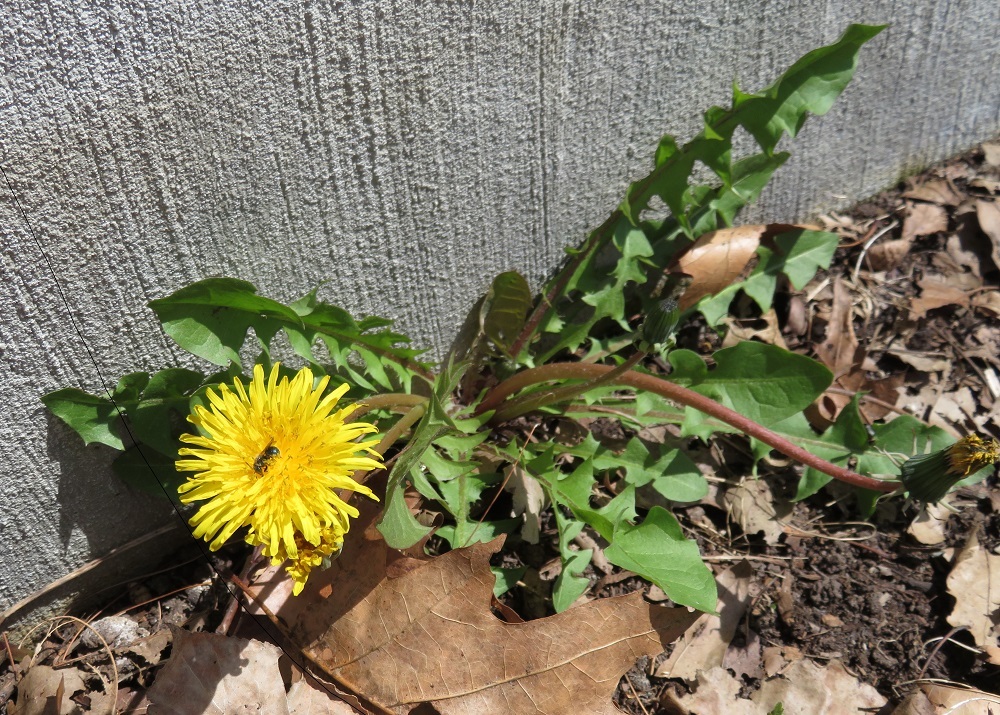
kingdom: Plantae
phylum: Tracheophyta
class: Magnoliopsida
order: Asterales
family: Asteraceae
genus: Taraxacum
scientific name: Taraxacum officinale
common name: Common dandelion
